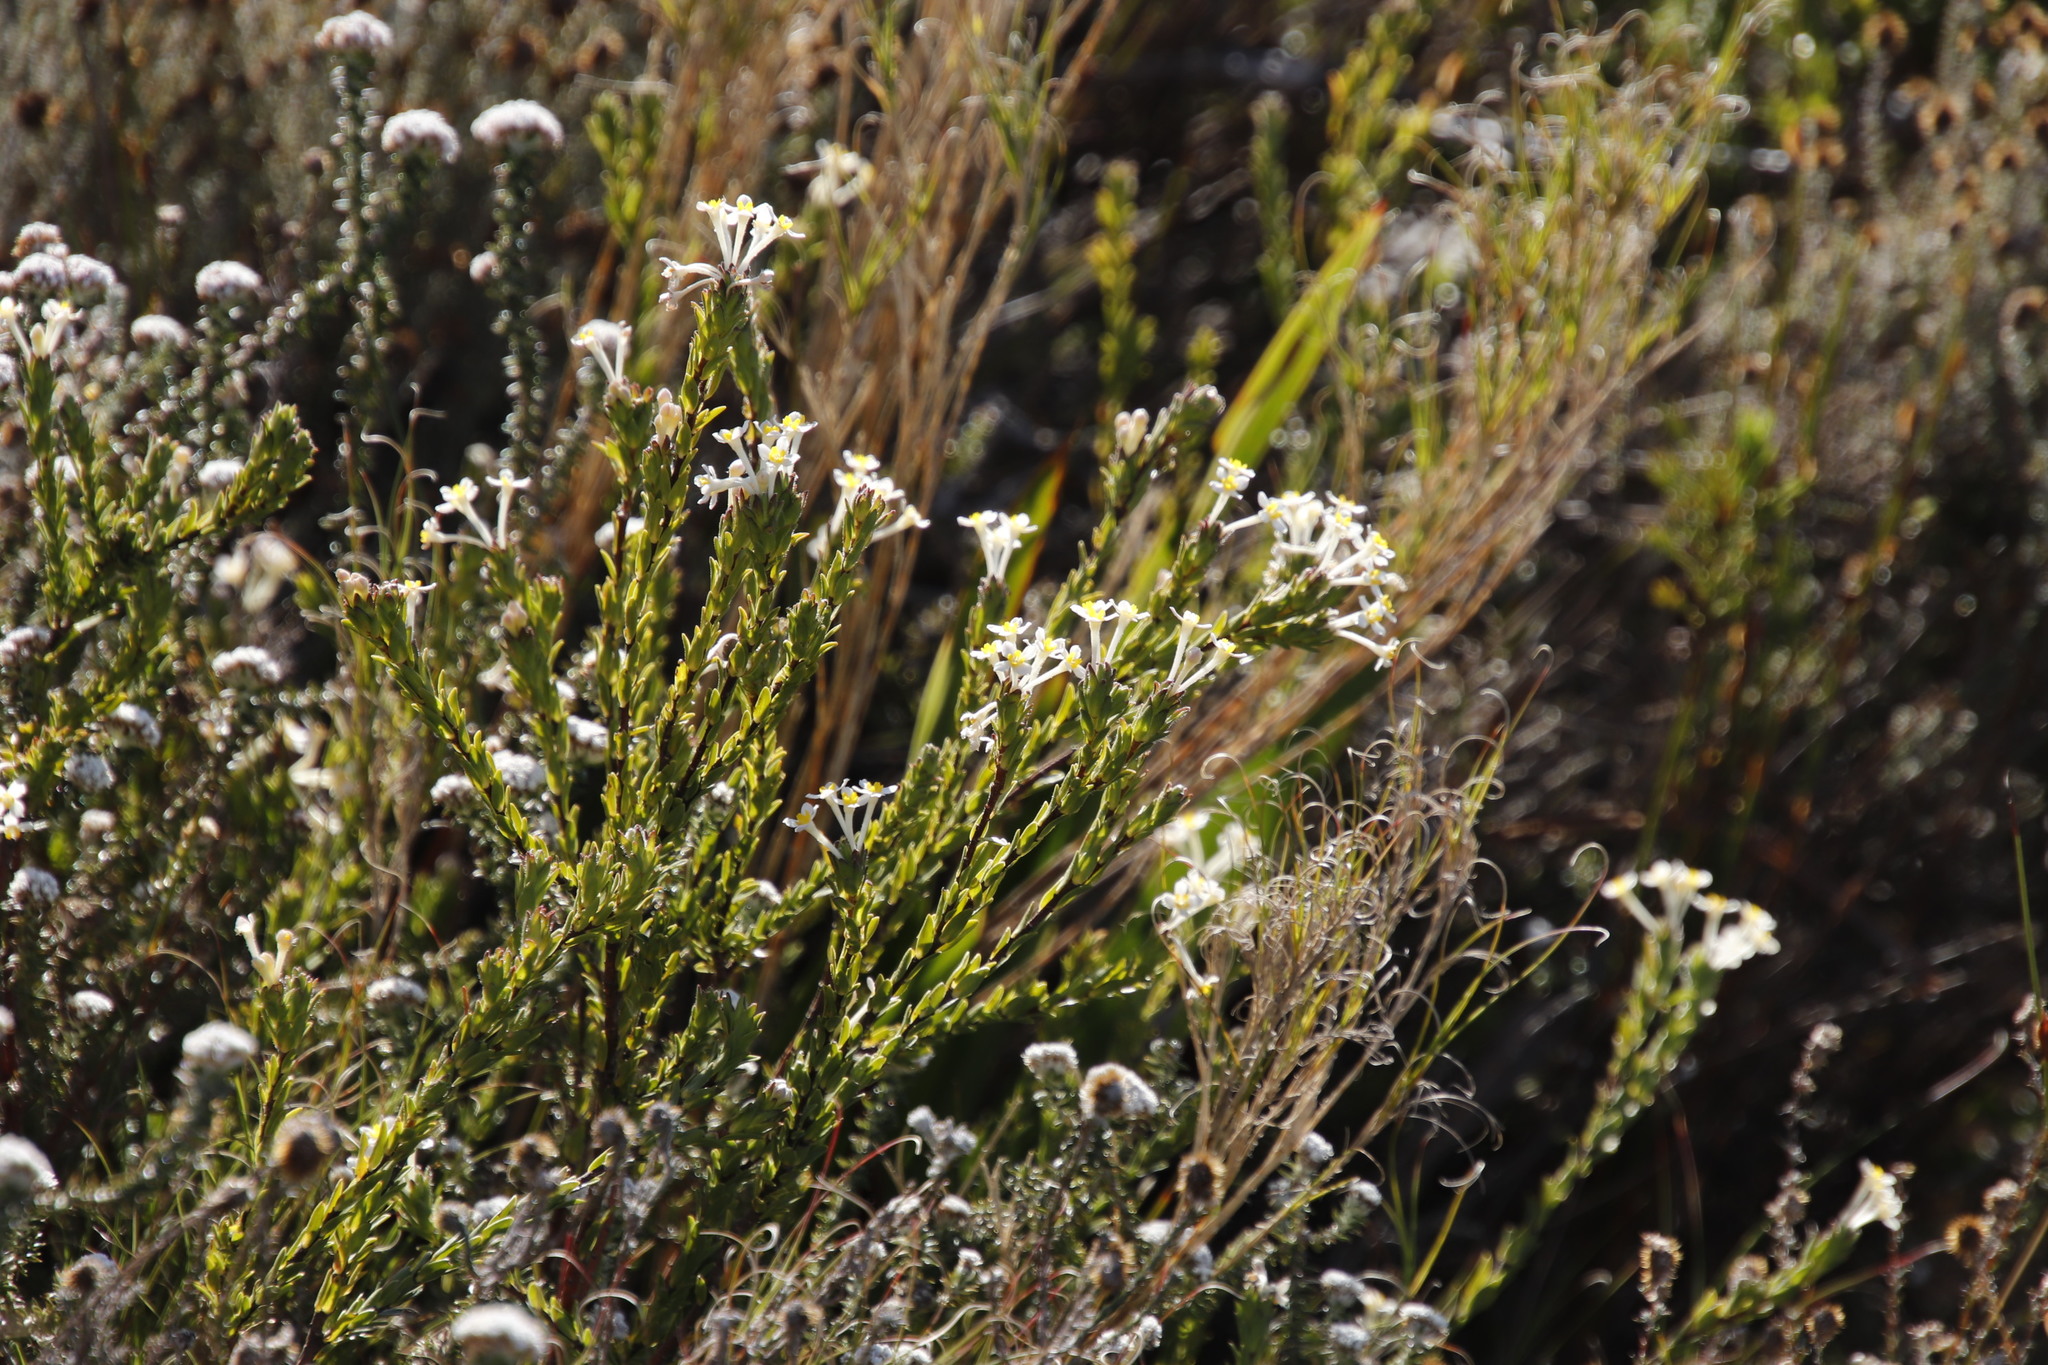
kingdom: Plantae
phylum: Tracheophyta
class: Magnoliopsida
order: Malvales
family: Thymelaeaceae
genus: Gnidia
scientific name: Gnidia tomentosa
